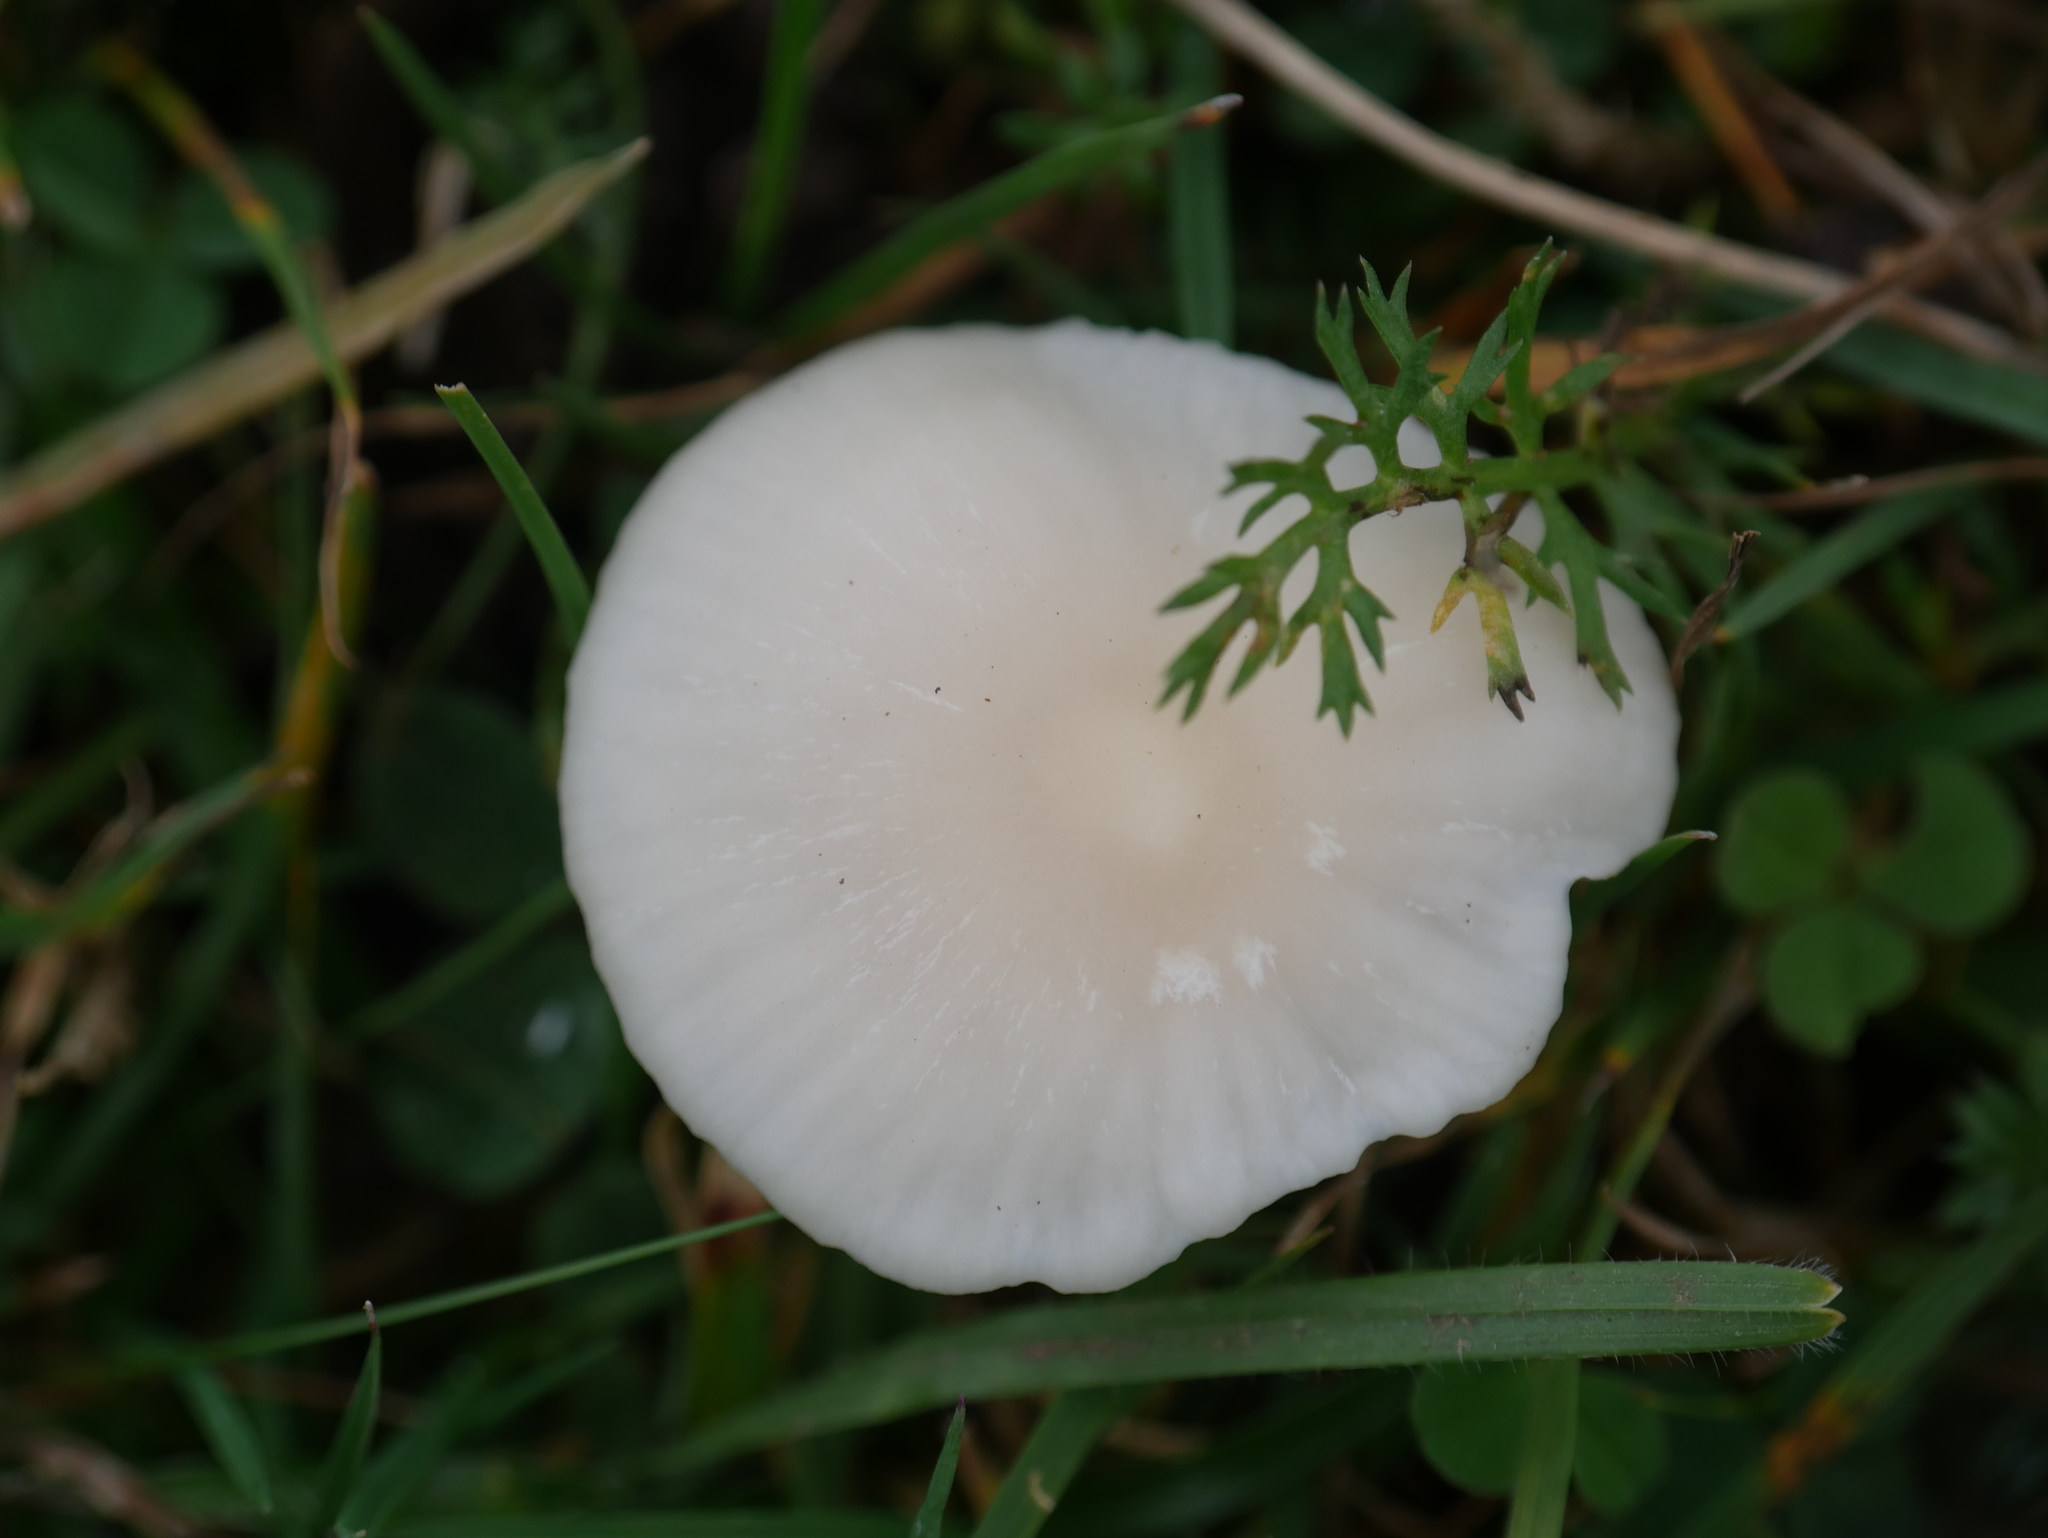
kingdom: Fungi
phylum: Basidiomycota
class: Agaricomycetes
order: Agaricales
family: Hygrophoraceae
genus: Cuphophyllus
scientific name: Cuphophyllus virgineus
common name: Snowy waxcap
